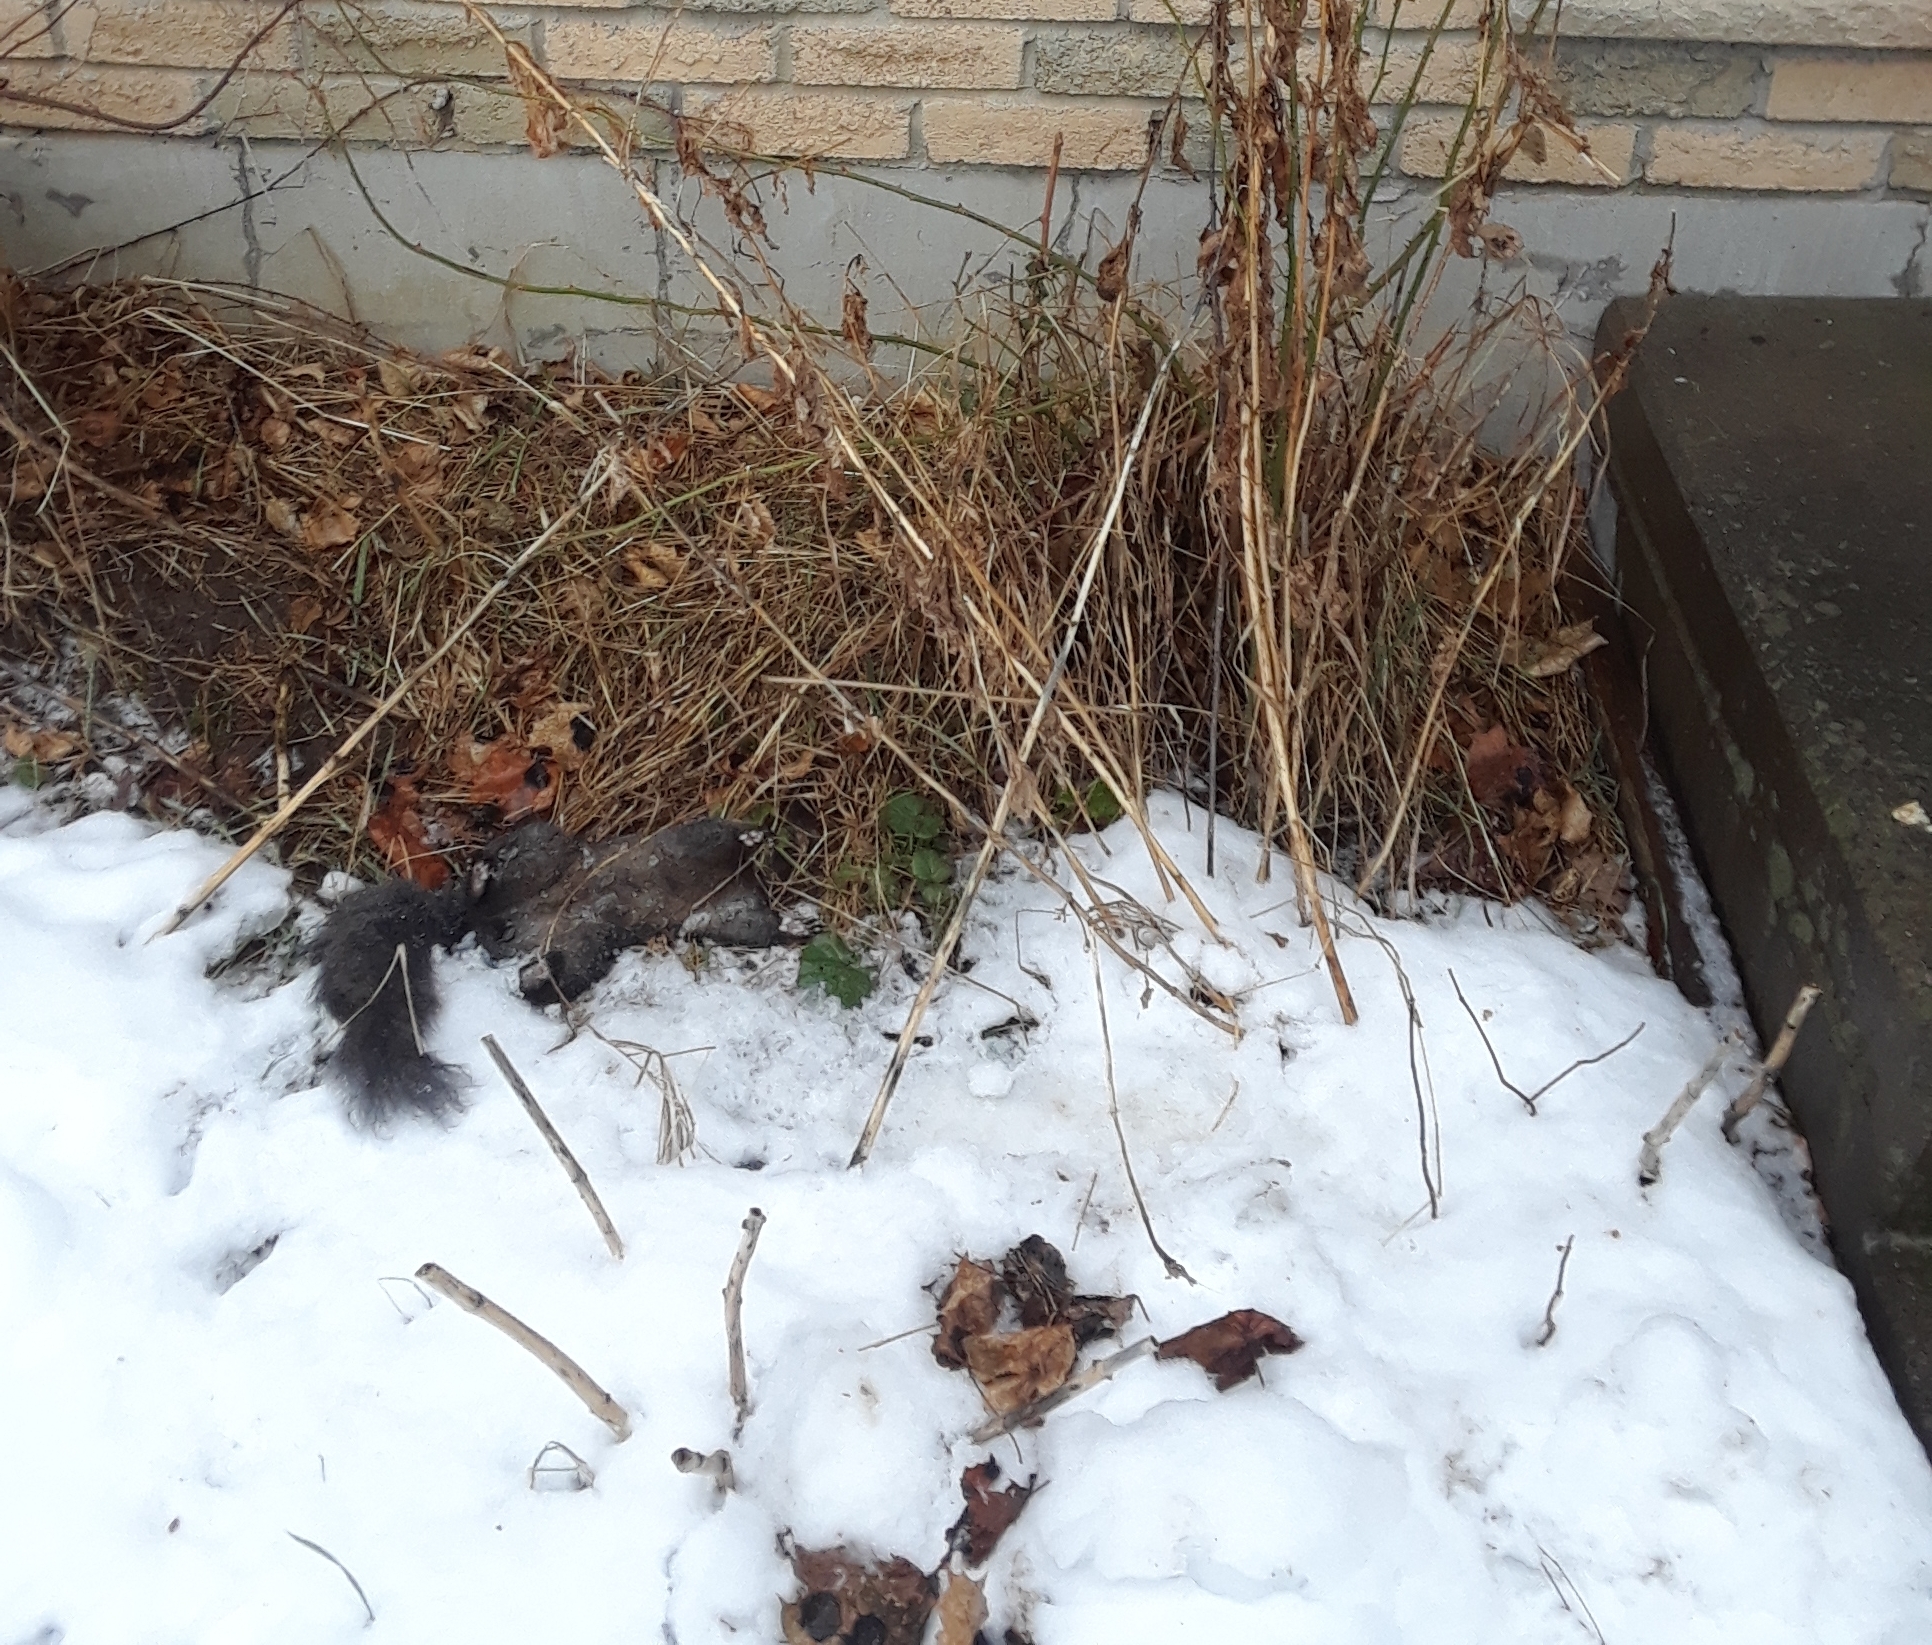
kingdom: Animalia
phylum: Chordata
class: Mammalia
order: Rodentia
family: Sciuridae
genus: Sciurus
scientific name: Sciurus carolinensis
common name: Eastern gray squirrel
